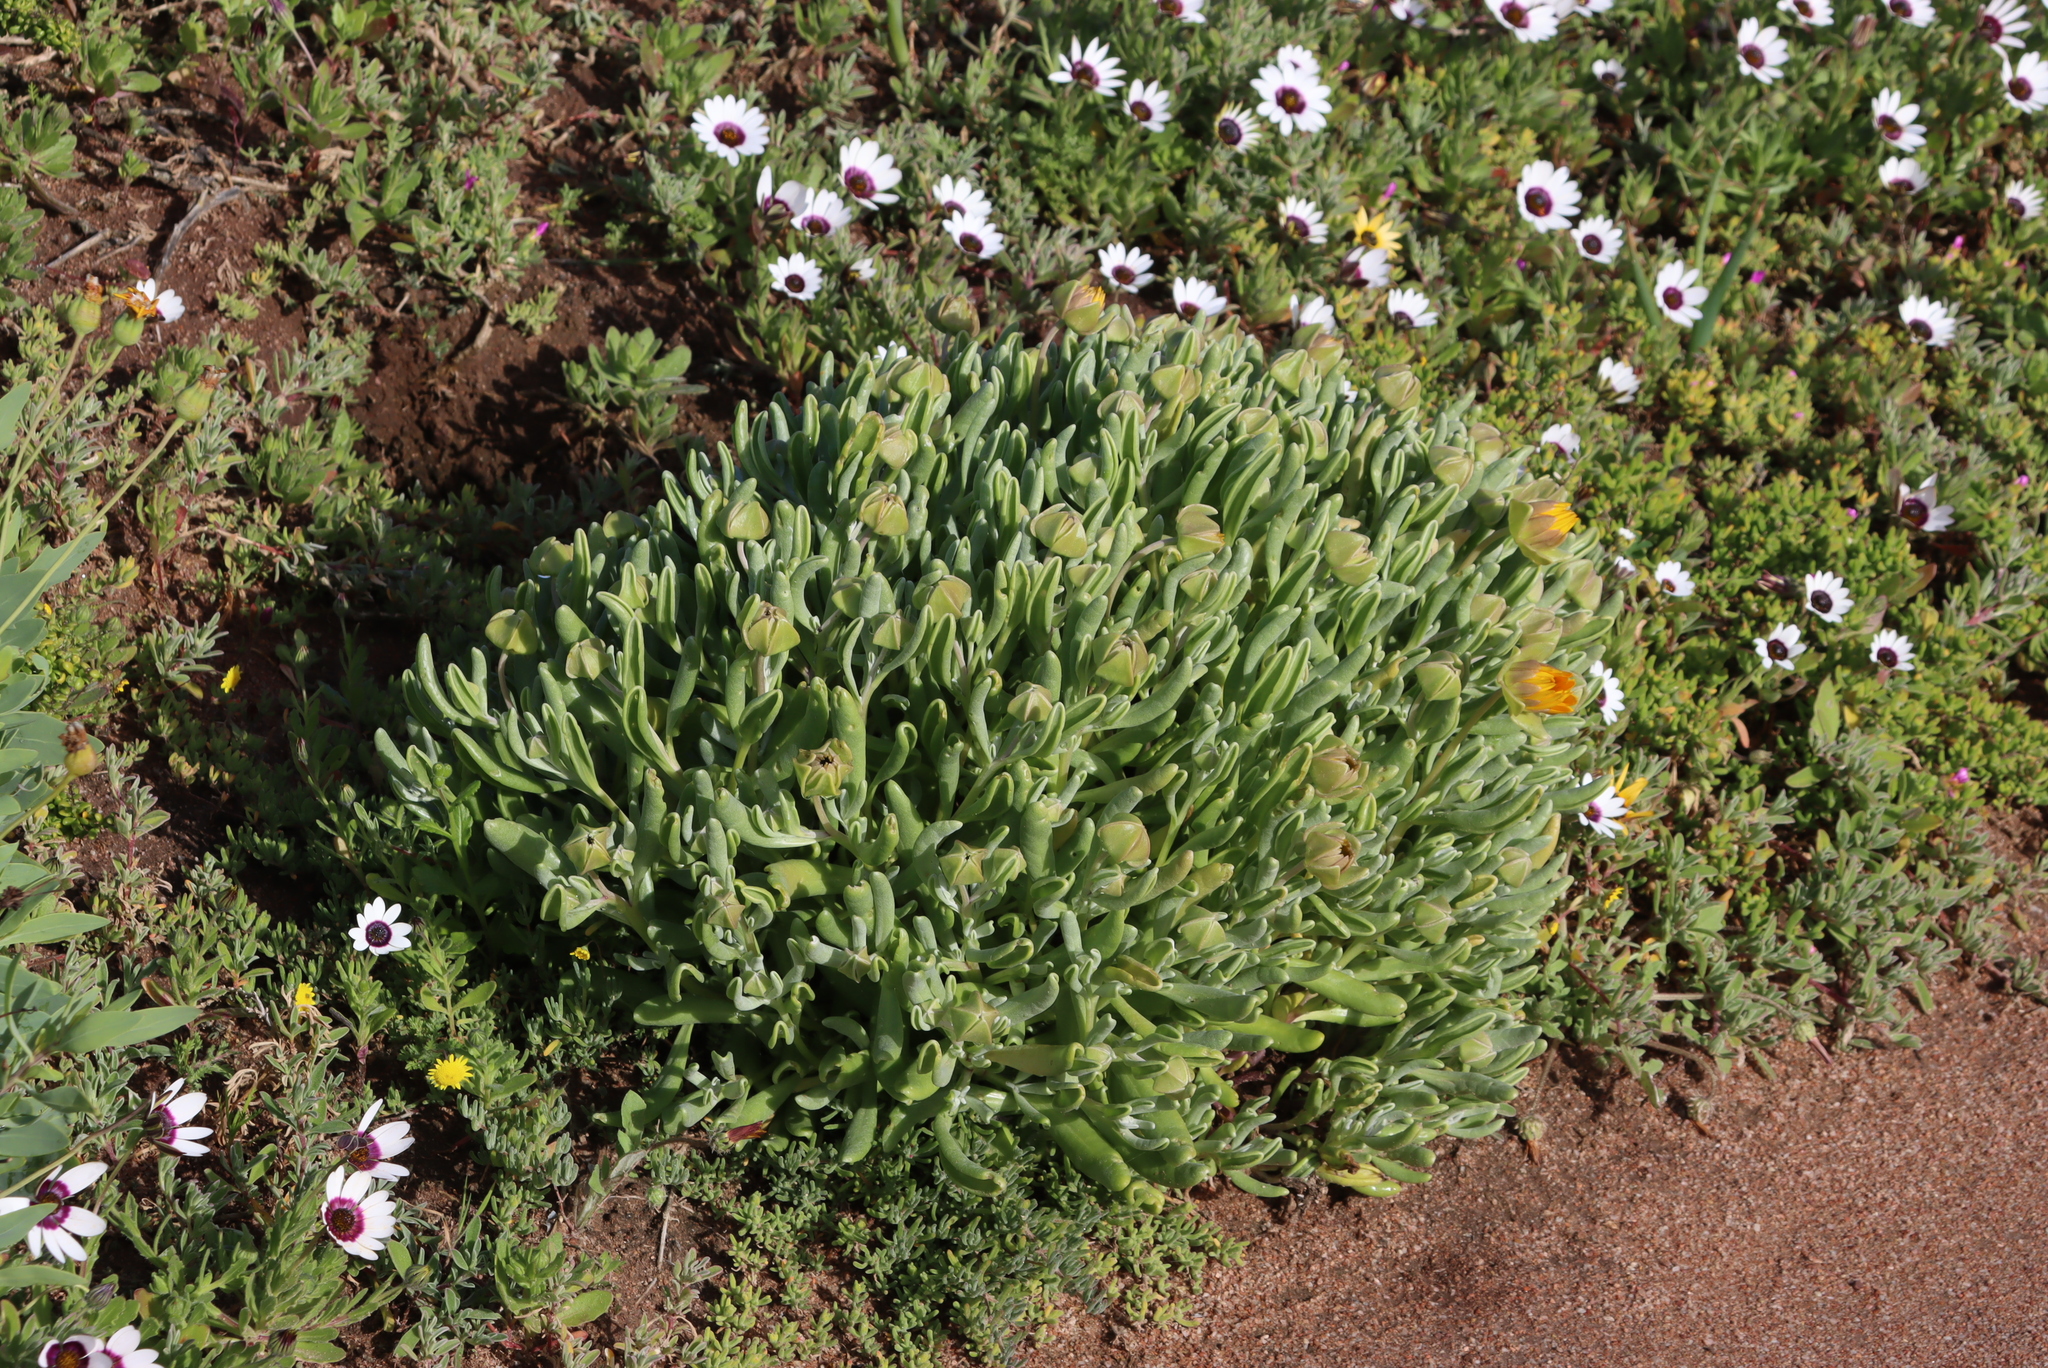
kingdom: Plantae
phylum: Tracheophyta
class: Magnoliopsida
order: Asterales
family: Asteraceae
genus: Didelta
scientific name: Didelta carnosa
